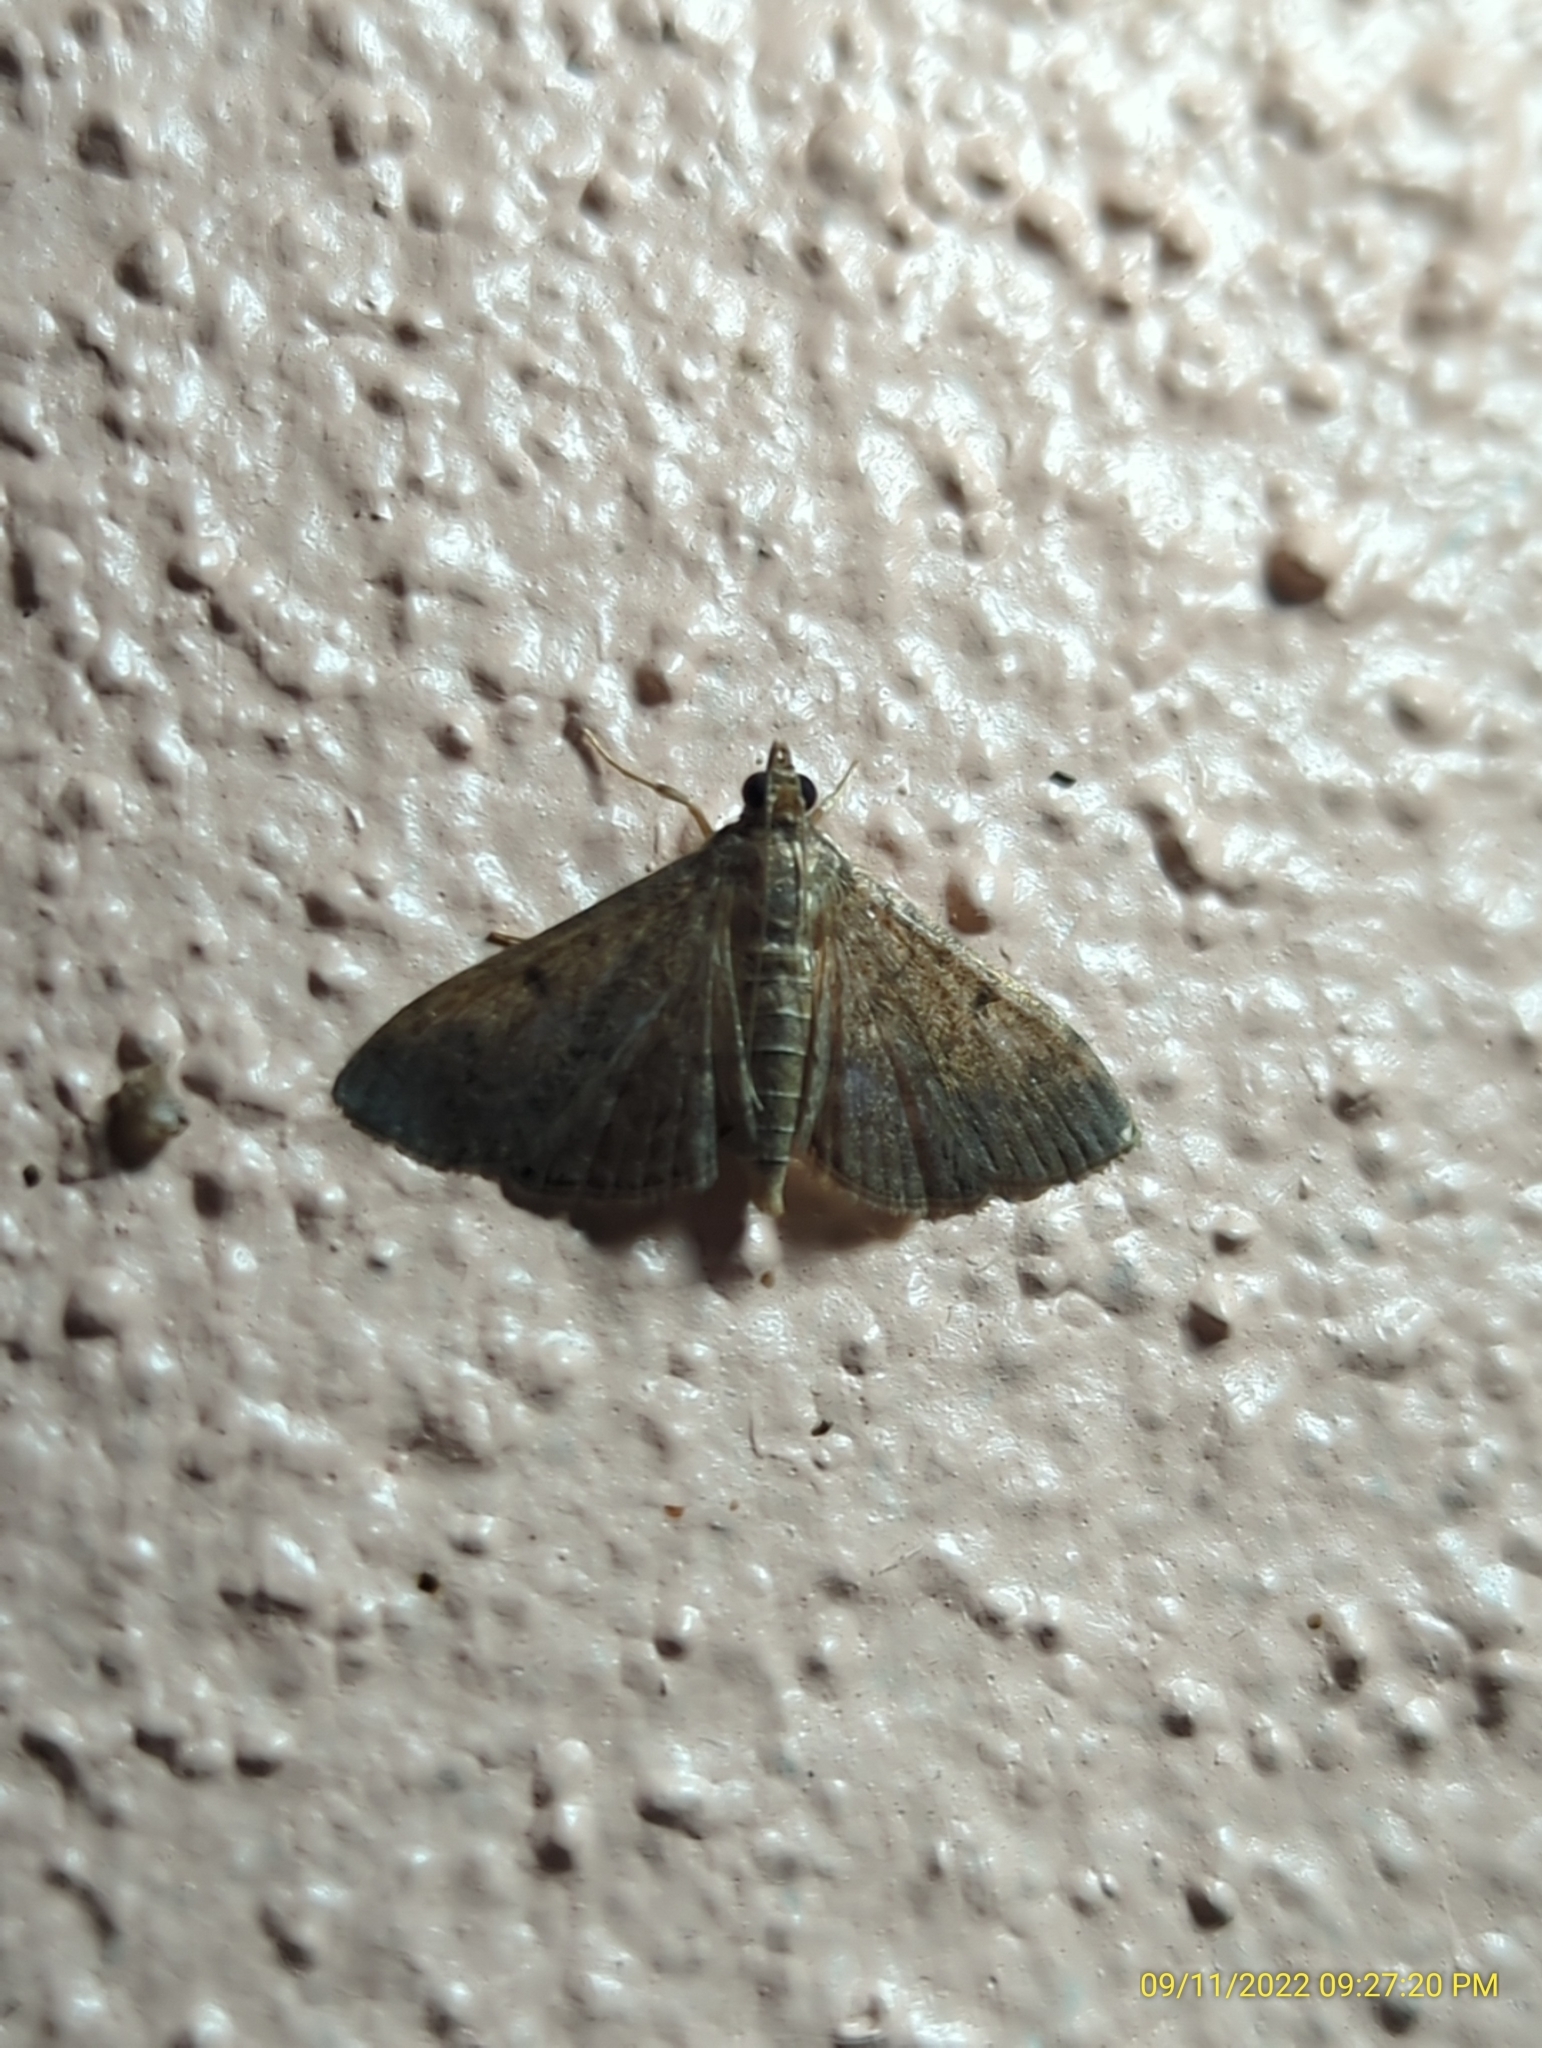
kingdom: Animalia
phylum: Arthropoda
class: Insecta
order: Lepidoptera
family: Crambidae
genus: Herpetogramma
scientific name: Herpetogramma phaeopteralis
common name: Dusky herpetogramma moth
